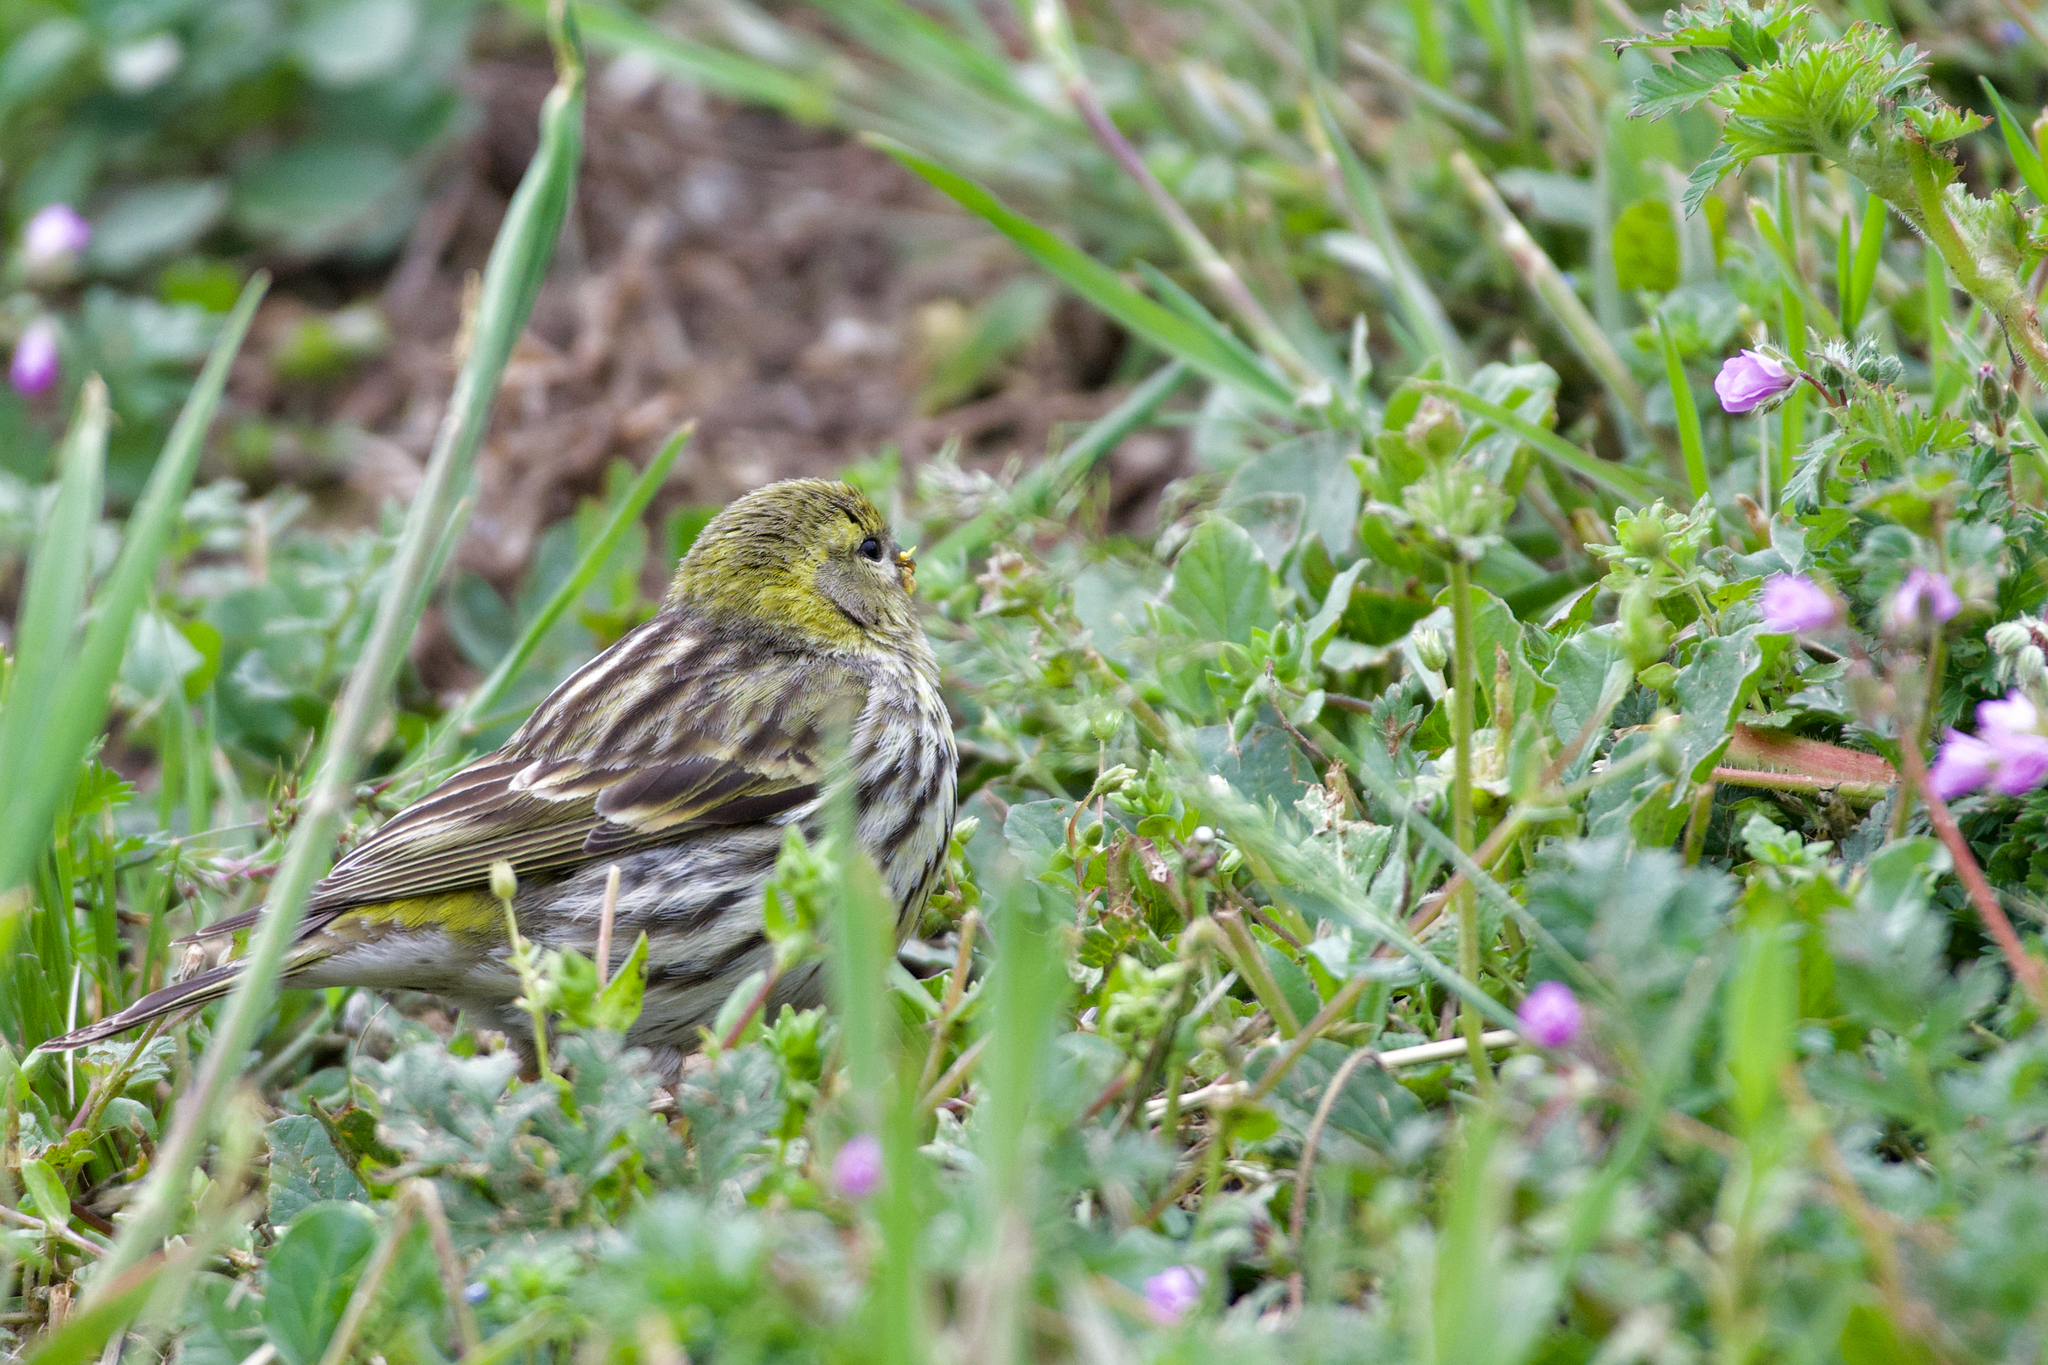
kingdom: Animalia
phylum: Chordata
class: Aves
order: Passeriformes
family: Fringillidae
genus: Serinus
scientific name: Serinus serinus
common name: European serin
